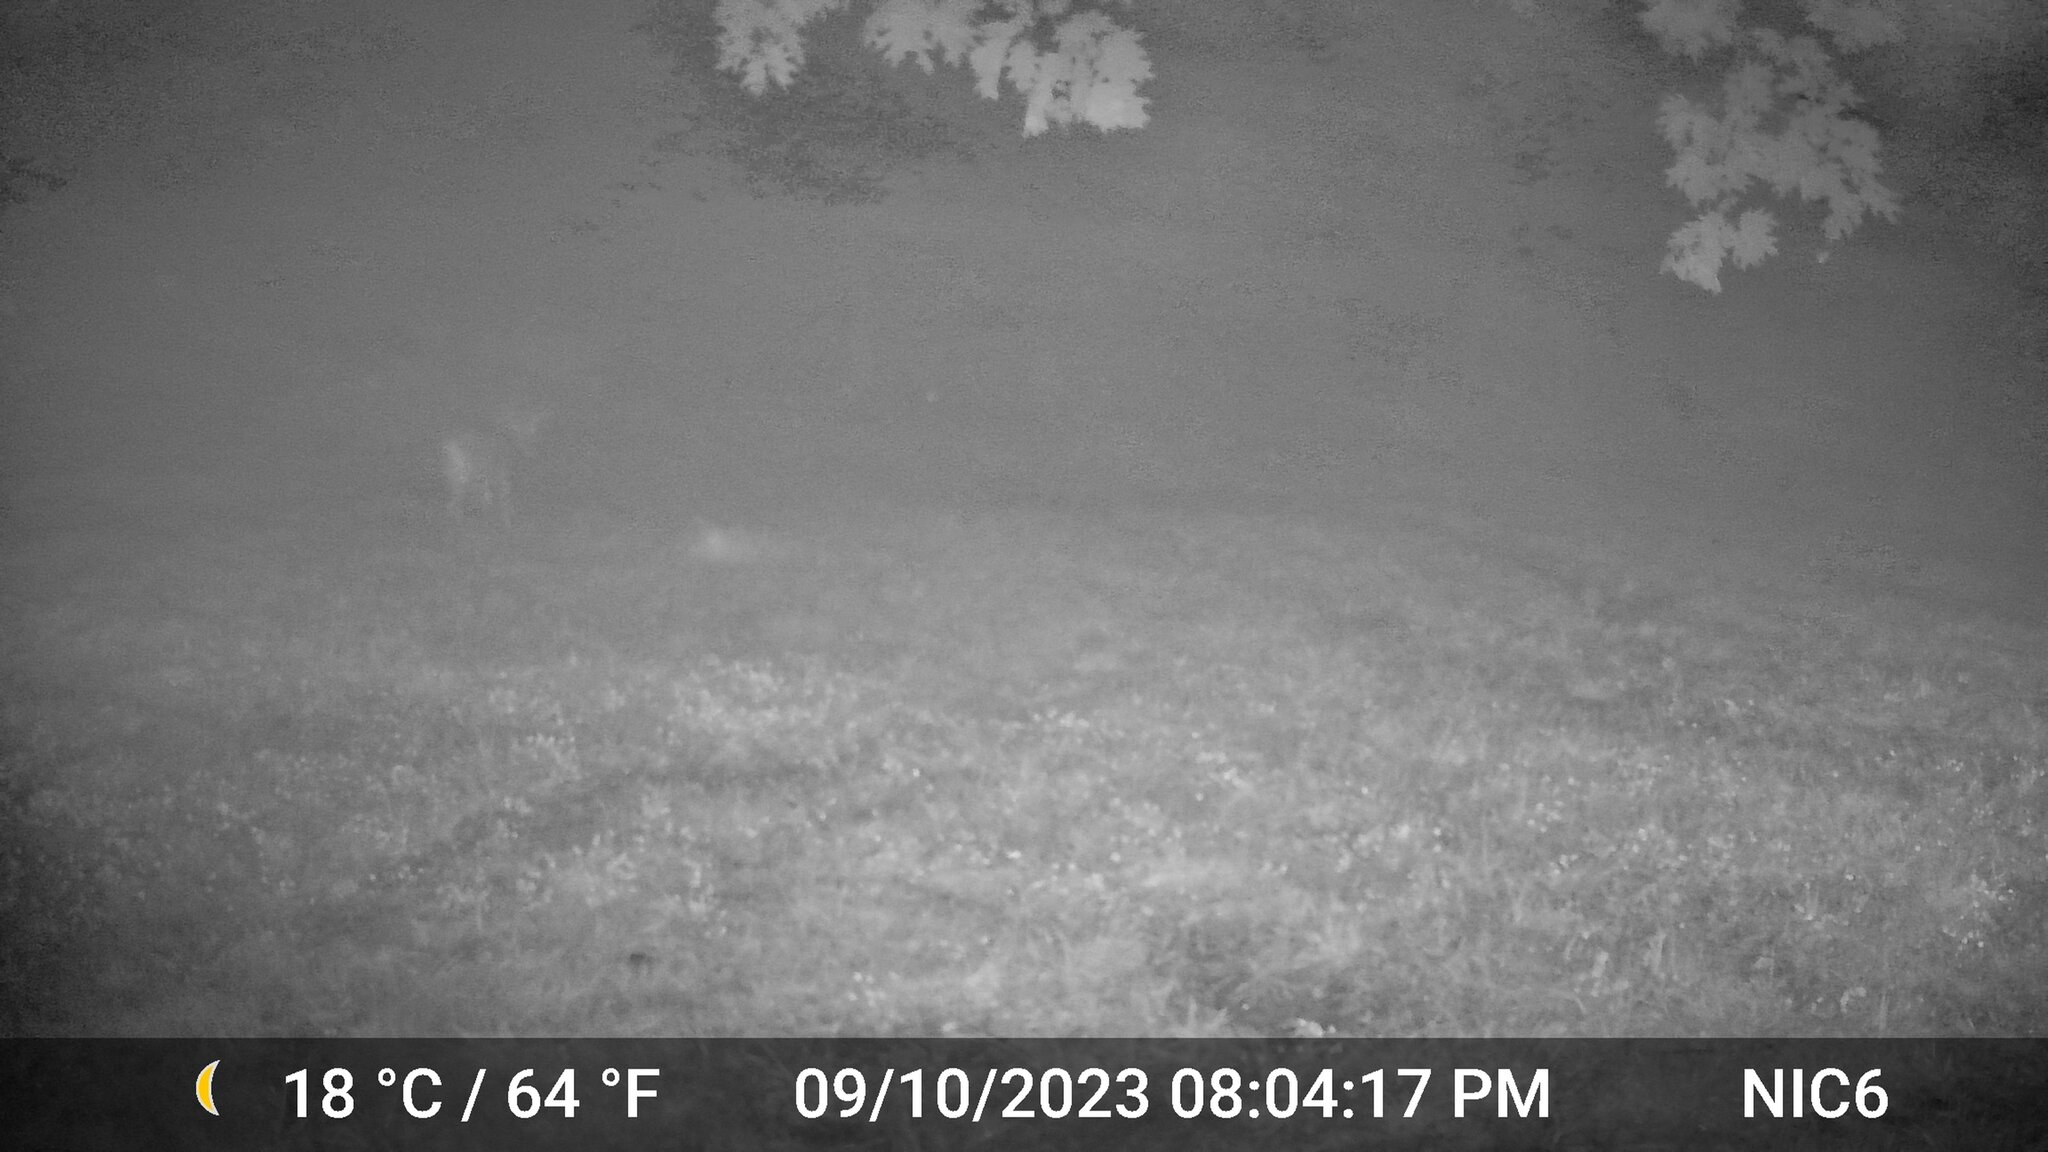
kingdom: Animalia
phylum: Chordata
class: Mammalia
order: Artiodactyla
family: Cervidae
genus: Odocoileus
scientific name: Odocoileus virginianus
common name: White-tailed deer
